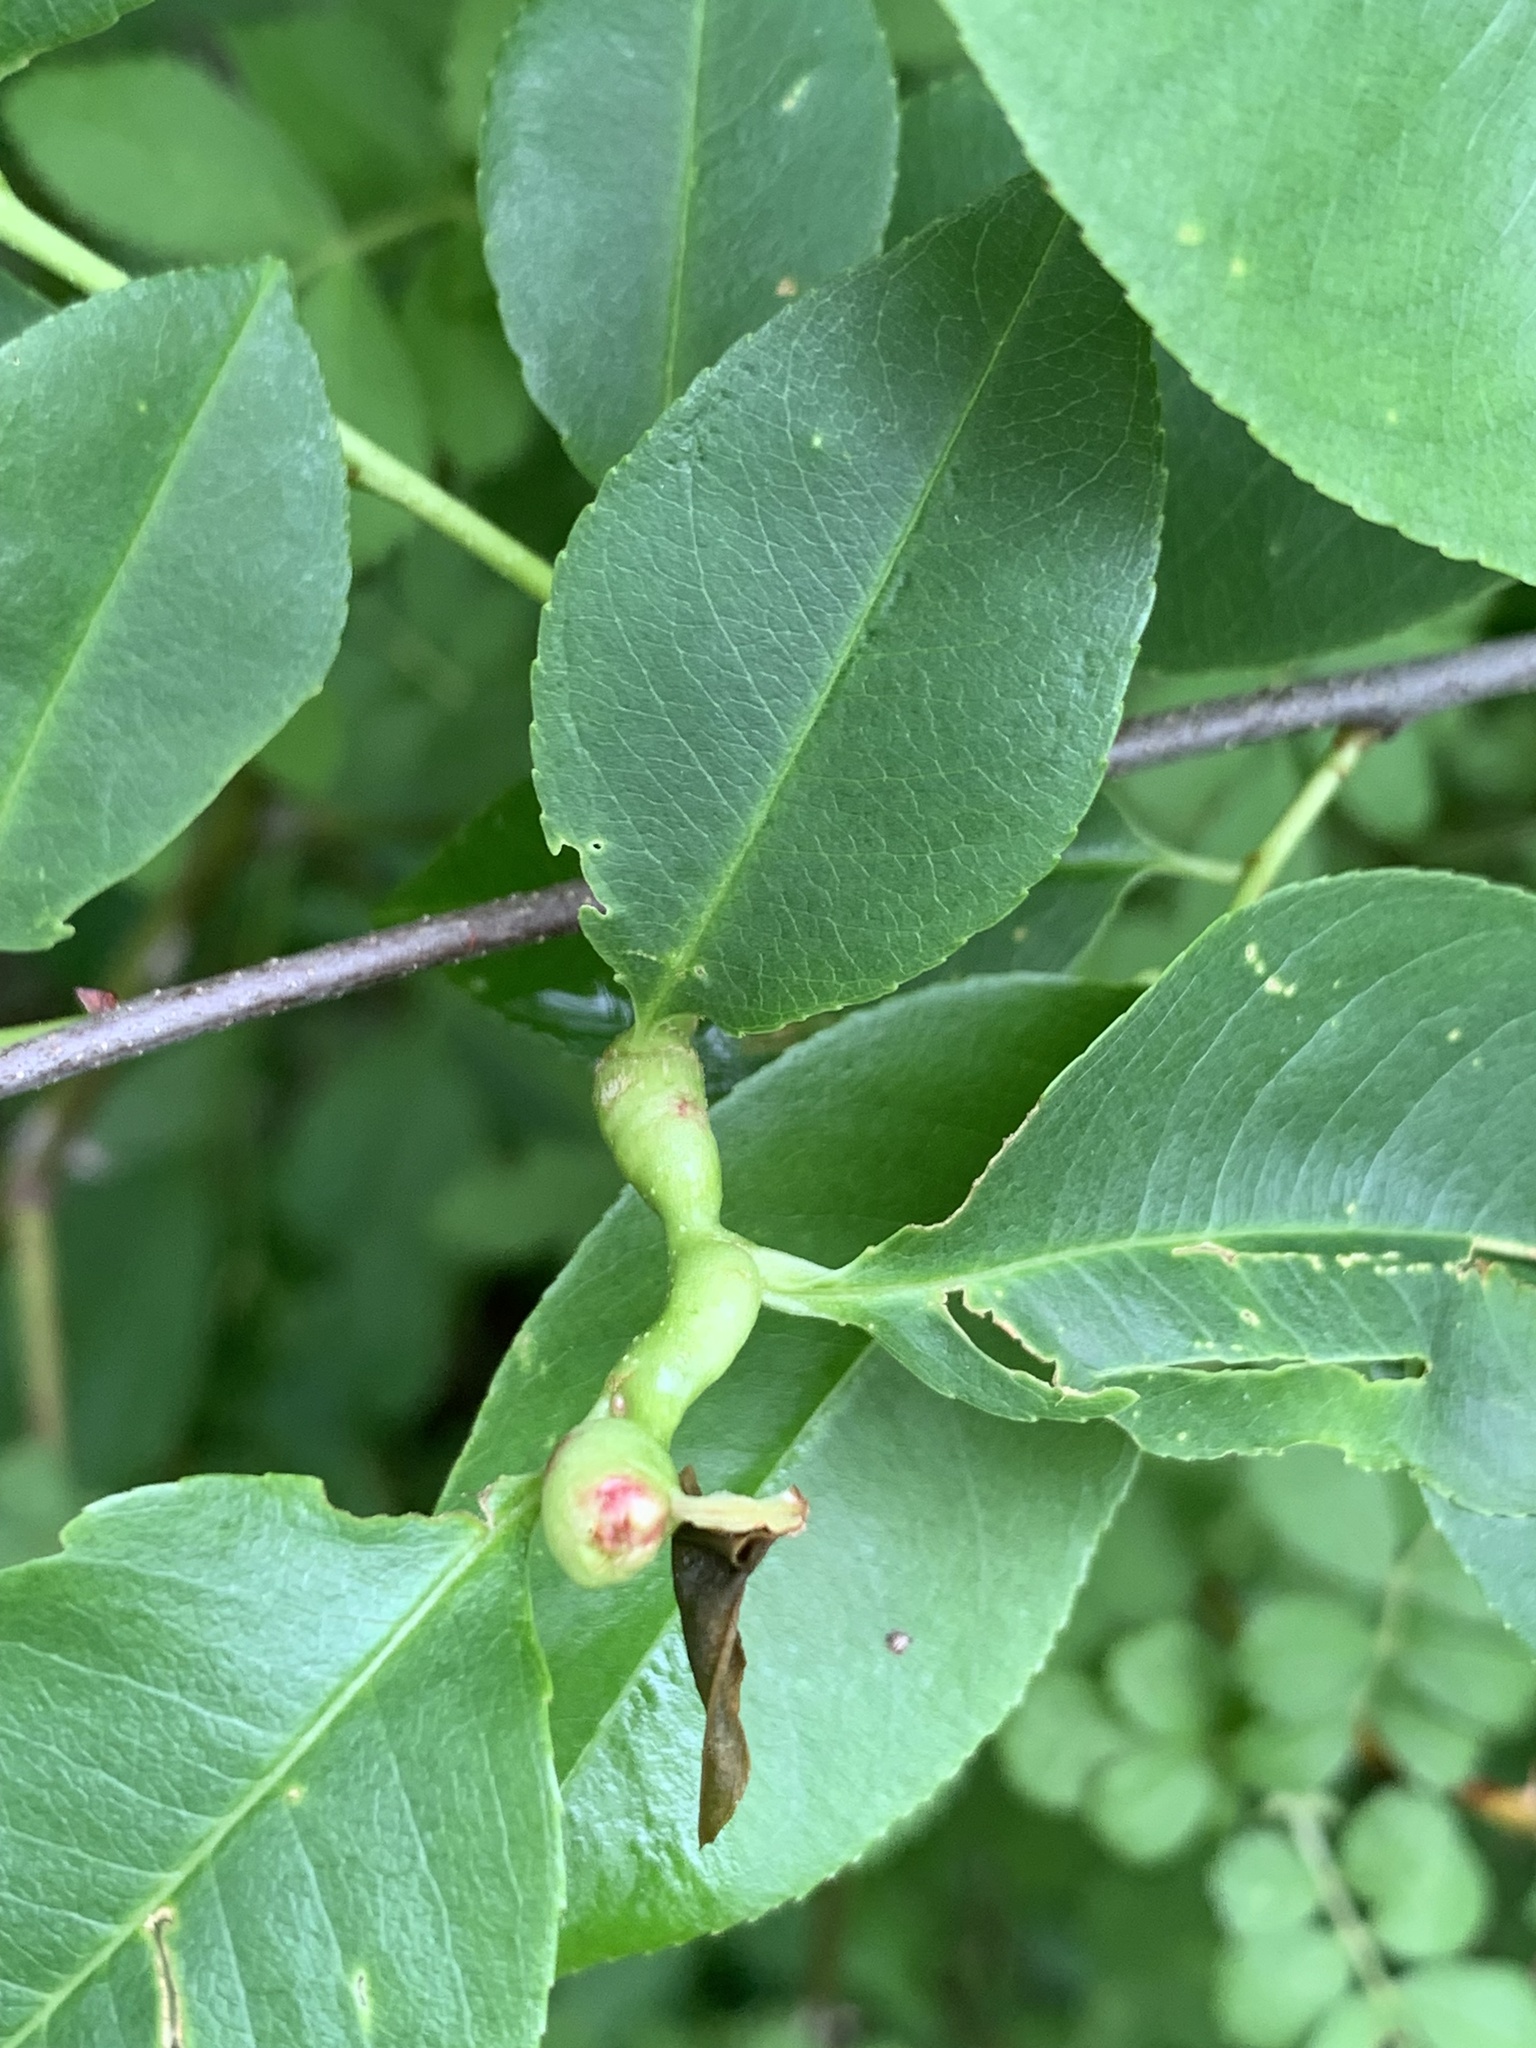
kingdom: Animalia
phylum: Arthropoda
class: Insecta
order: Diptera
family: Cecidomyiidae
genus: Contarinia
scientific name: Contarinia cerasiserotinae
